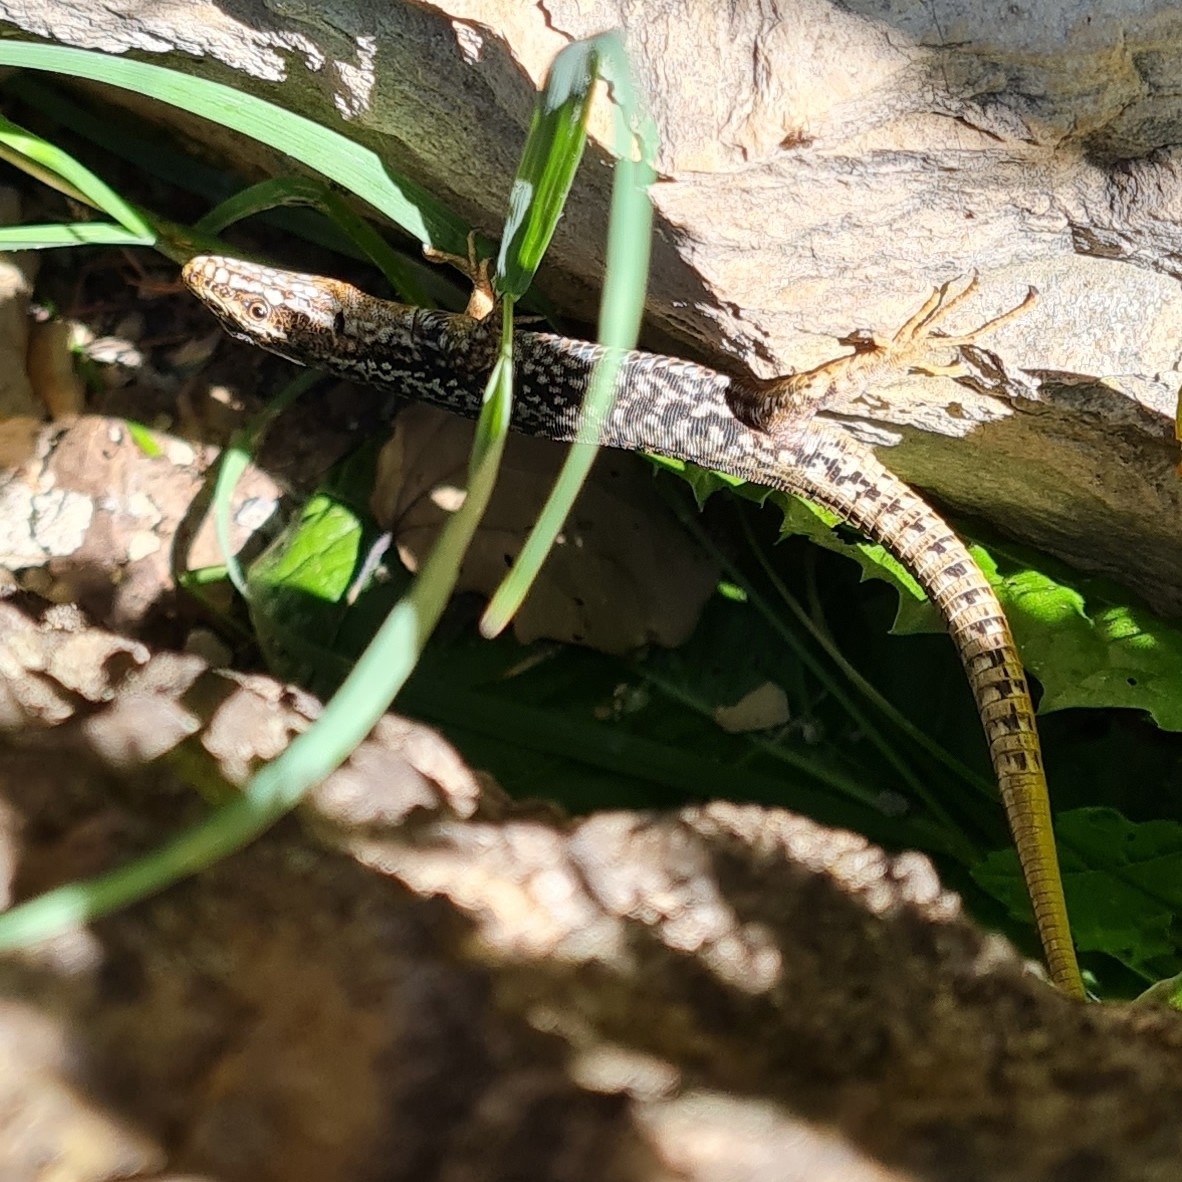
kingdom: Animalia
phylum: Chordata
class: Squamata
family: Lacertidae
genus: Podarcis
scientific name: Podarcis muralis
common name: Common wall lizard
